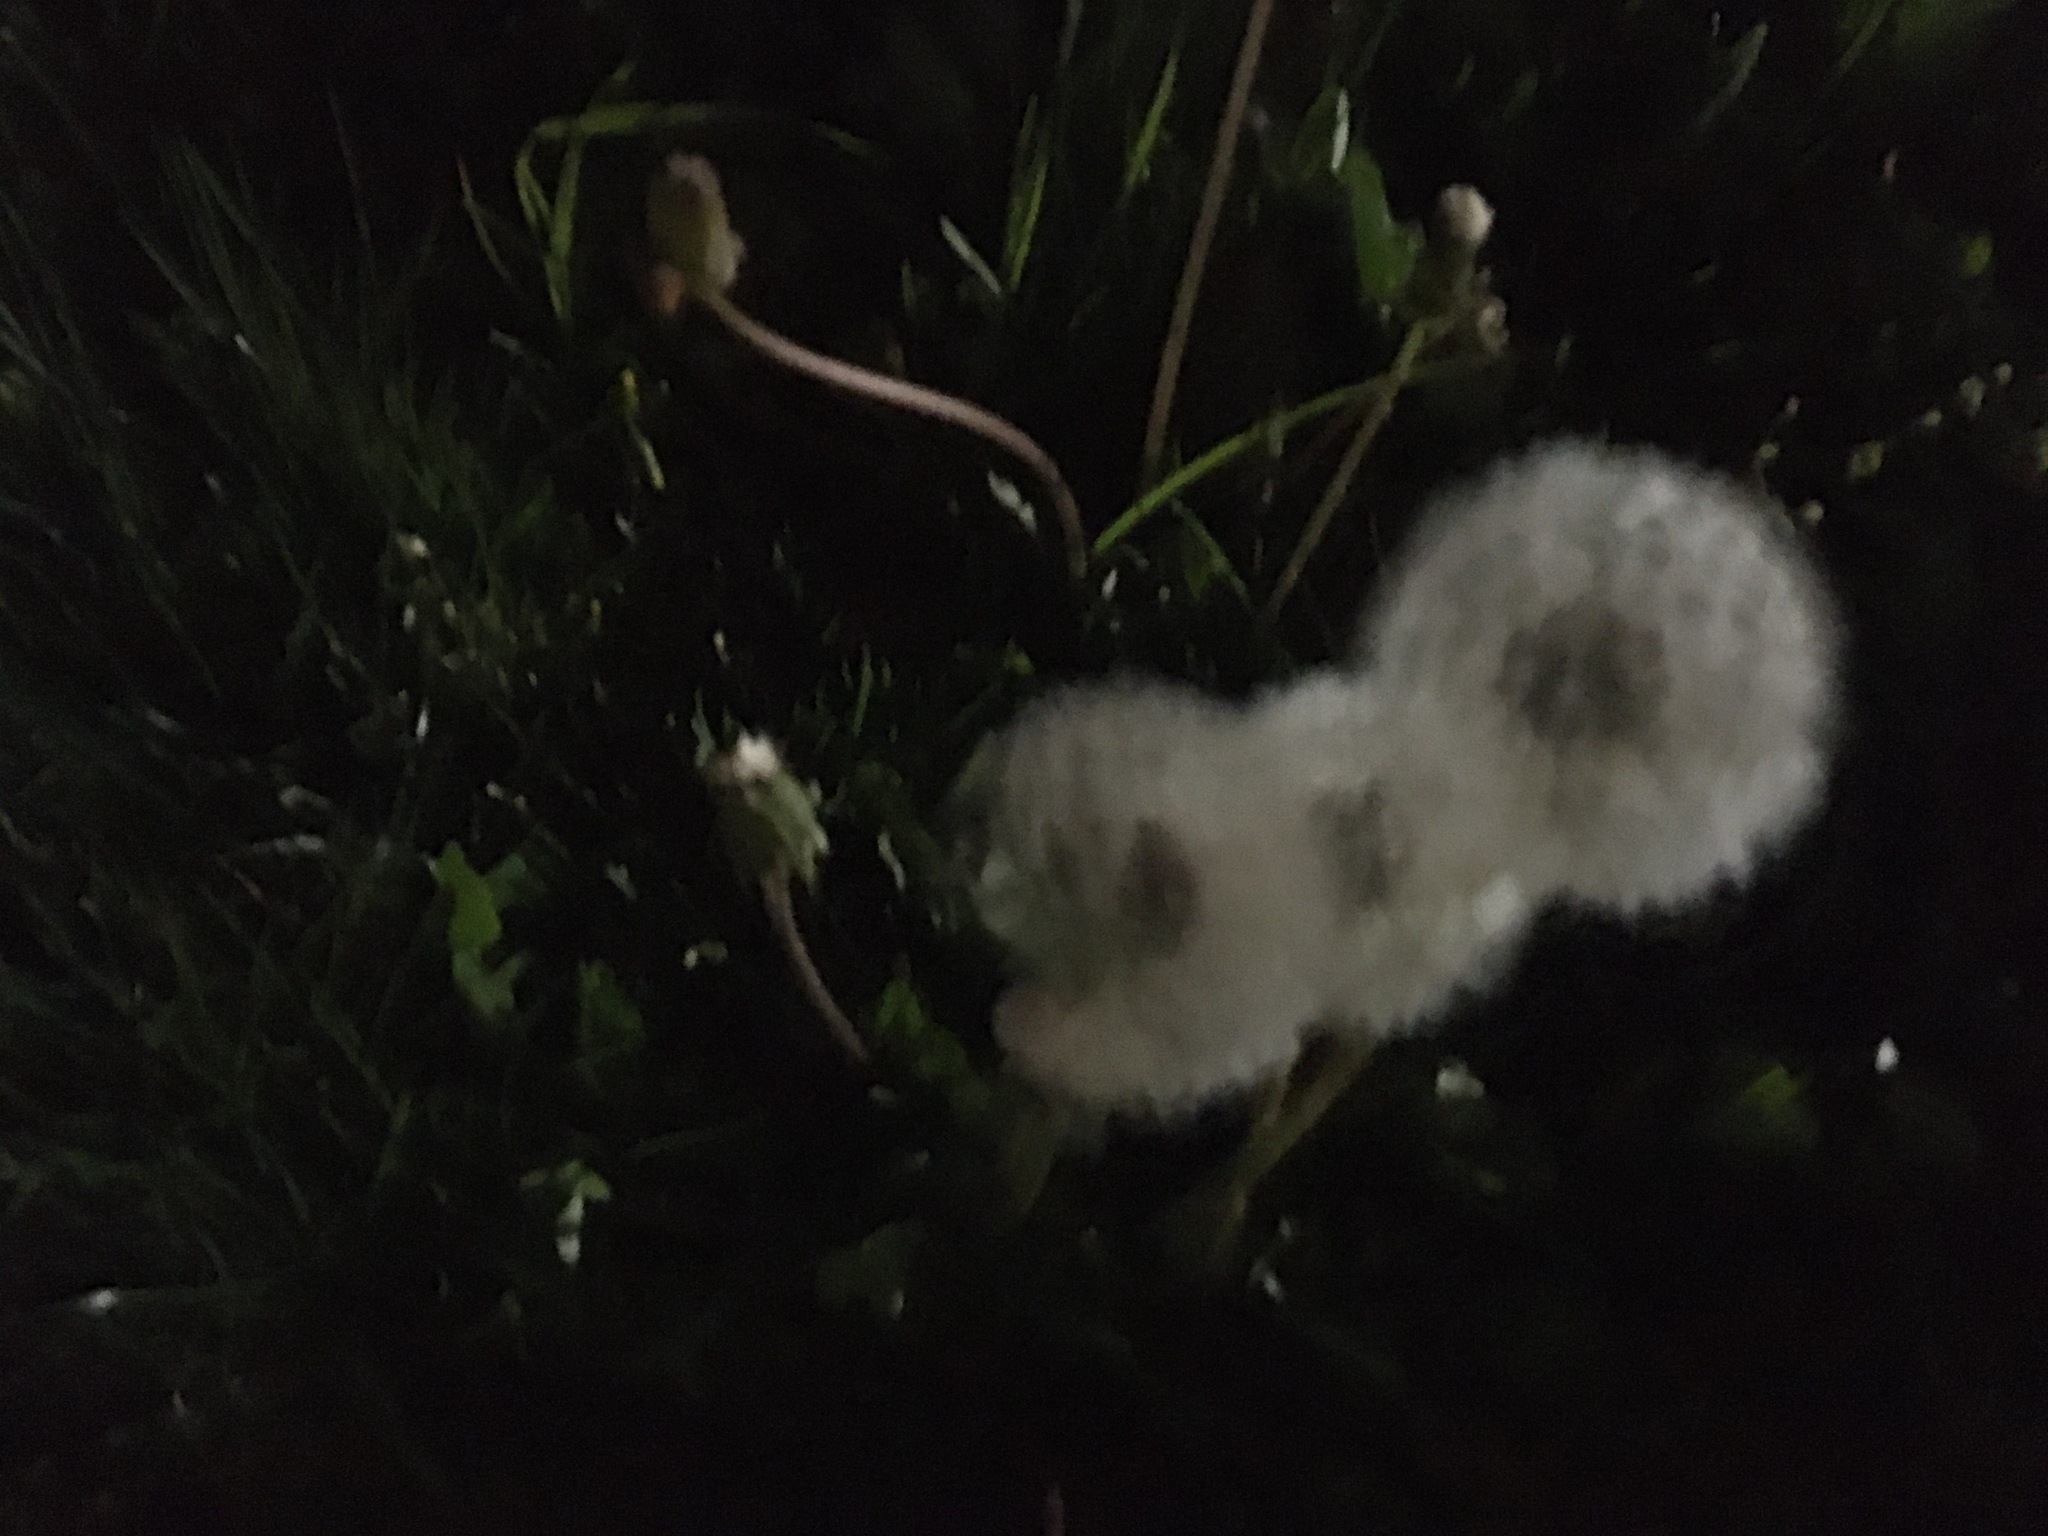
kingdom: Plantae
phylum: Tracheophyta
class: Magnoliopsida
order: Asterales
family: Asteraceae
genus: Taraxacum
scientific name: Taraxacum officinale
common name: Common dandelion
